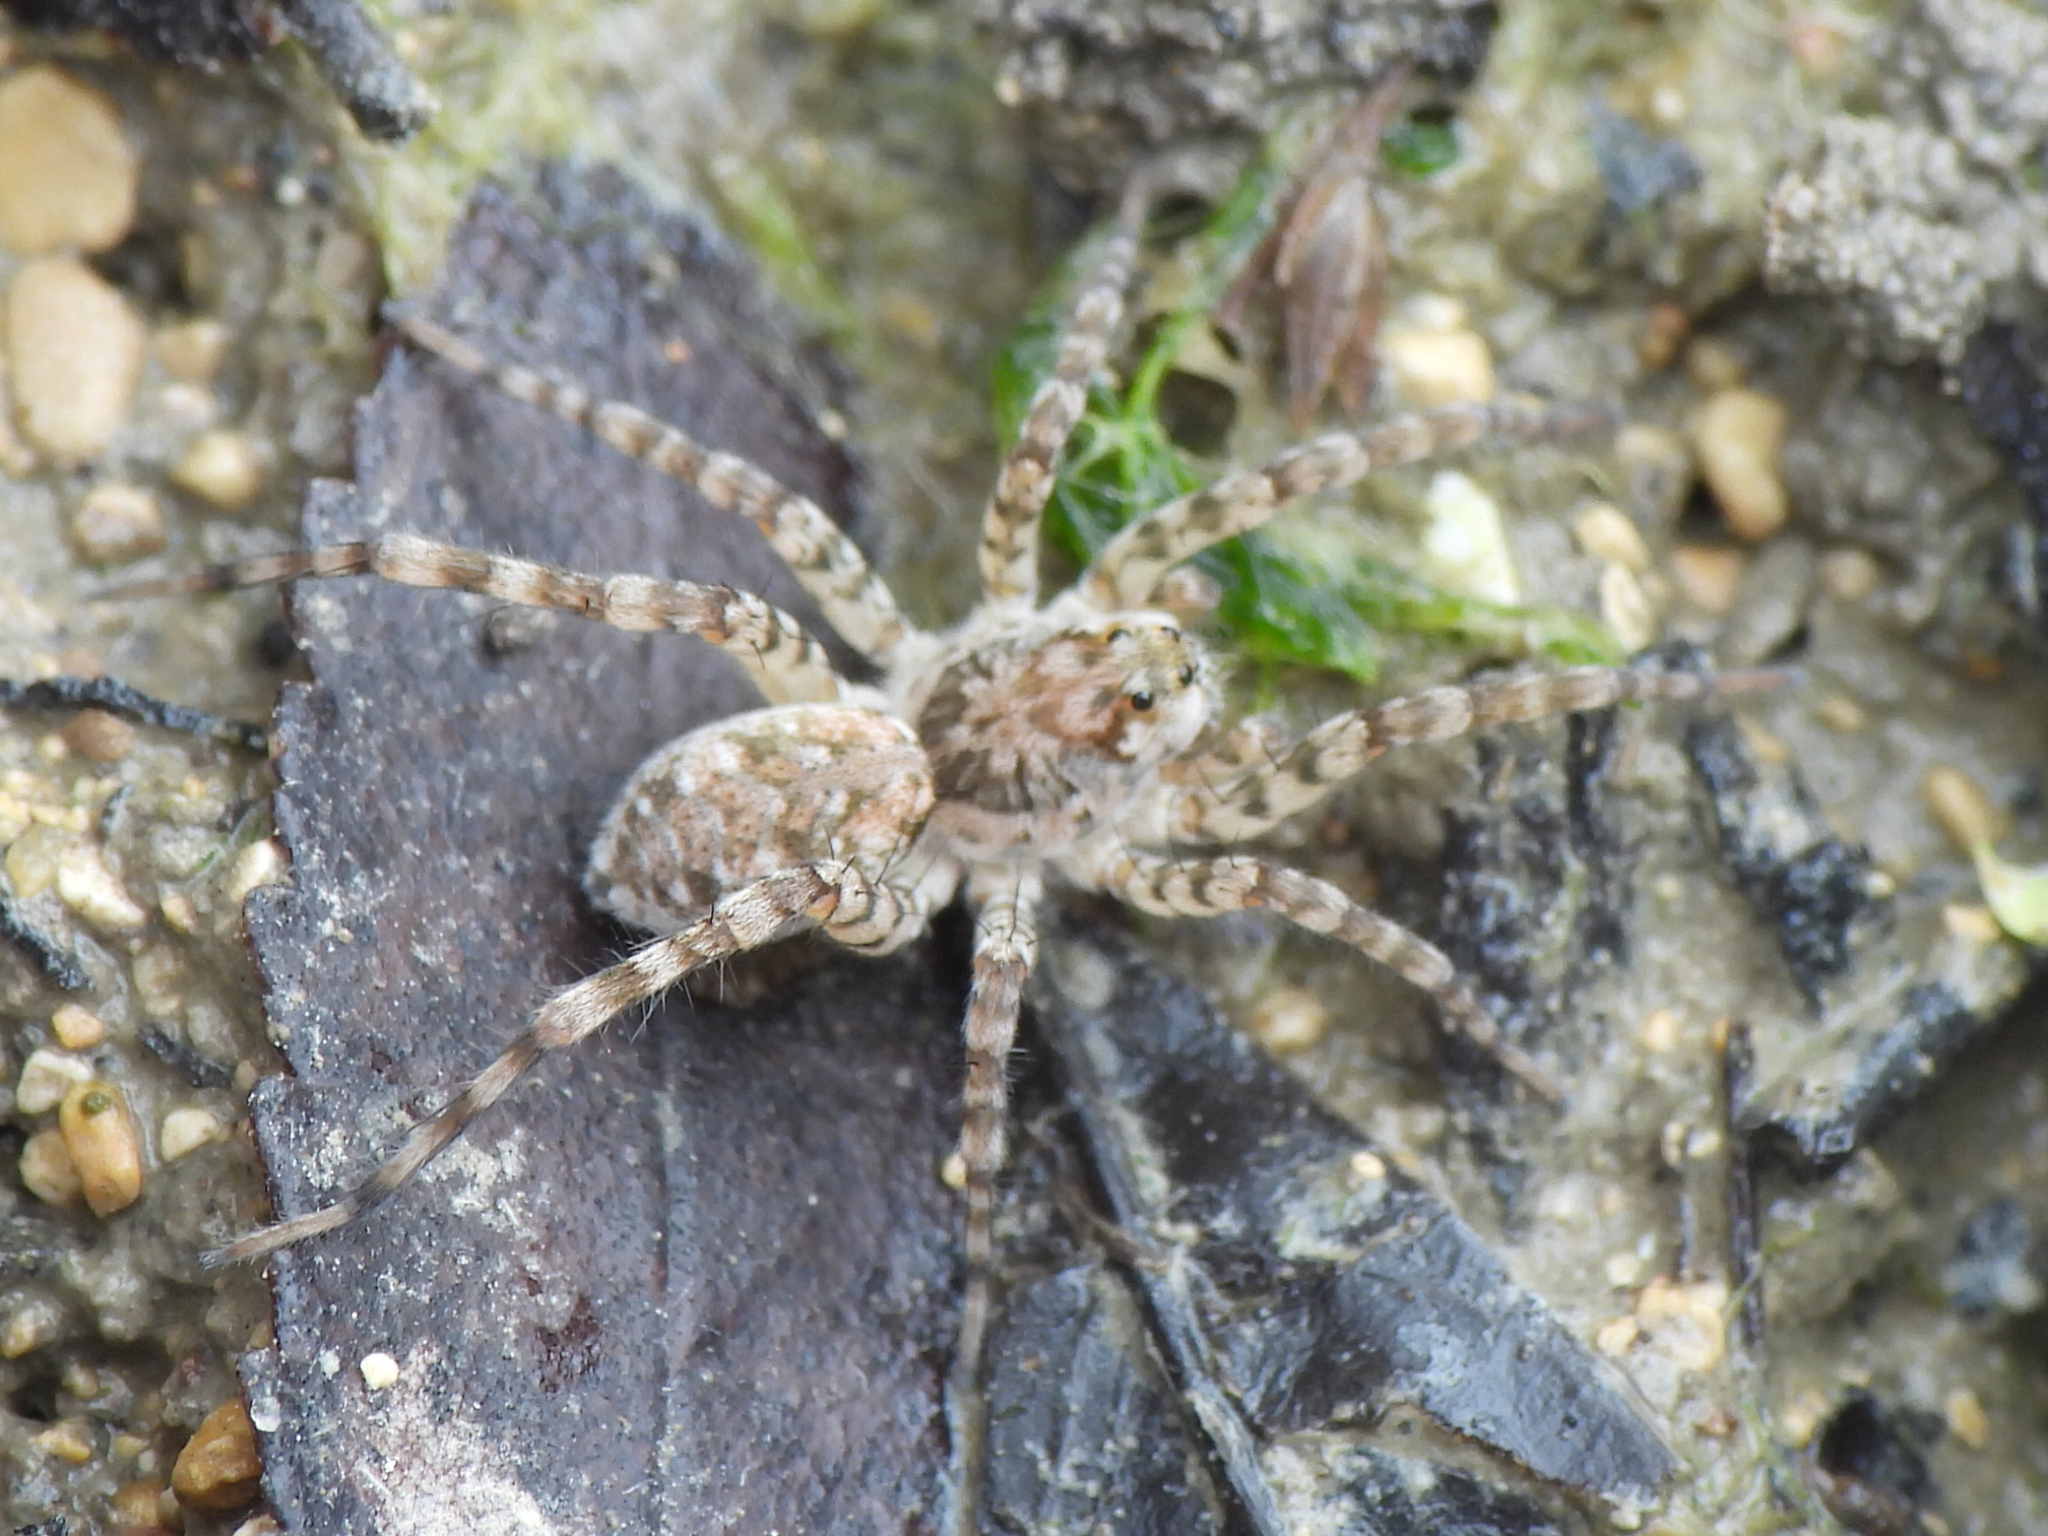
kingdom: Animalia
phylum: Arthropoda
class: Arachnida
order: Araneae
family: Lycosidae
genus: Arctosa
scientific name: Arctosa littoralis
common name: Wolf spiders
